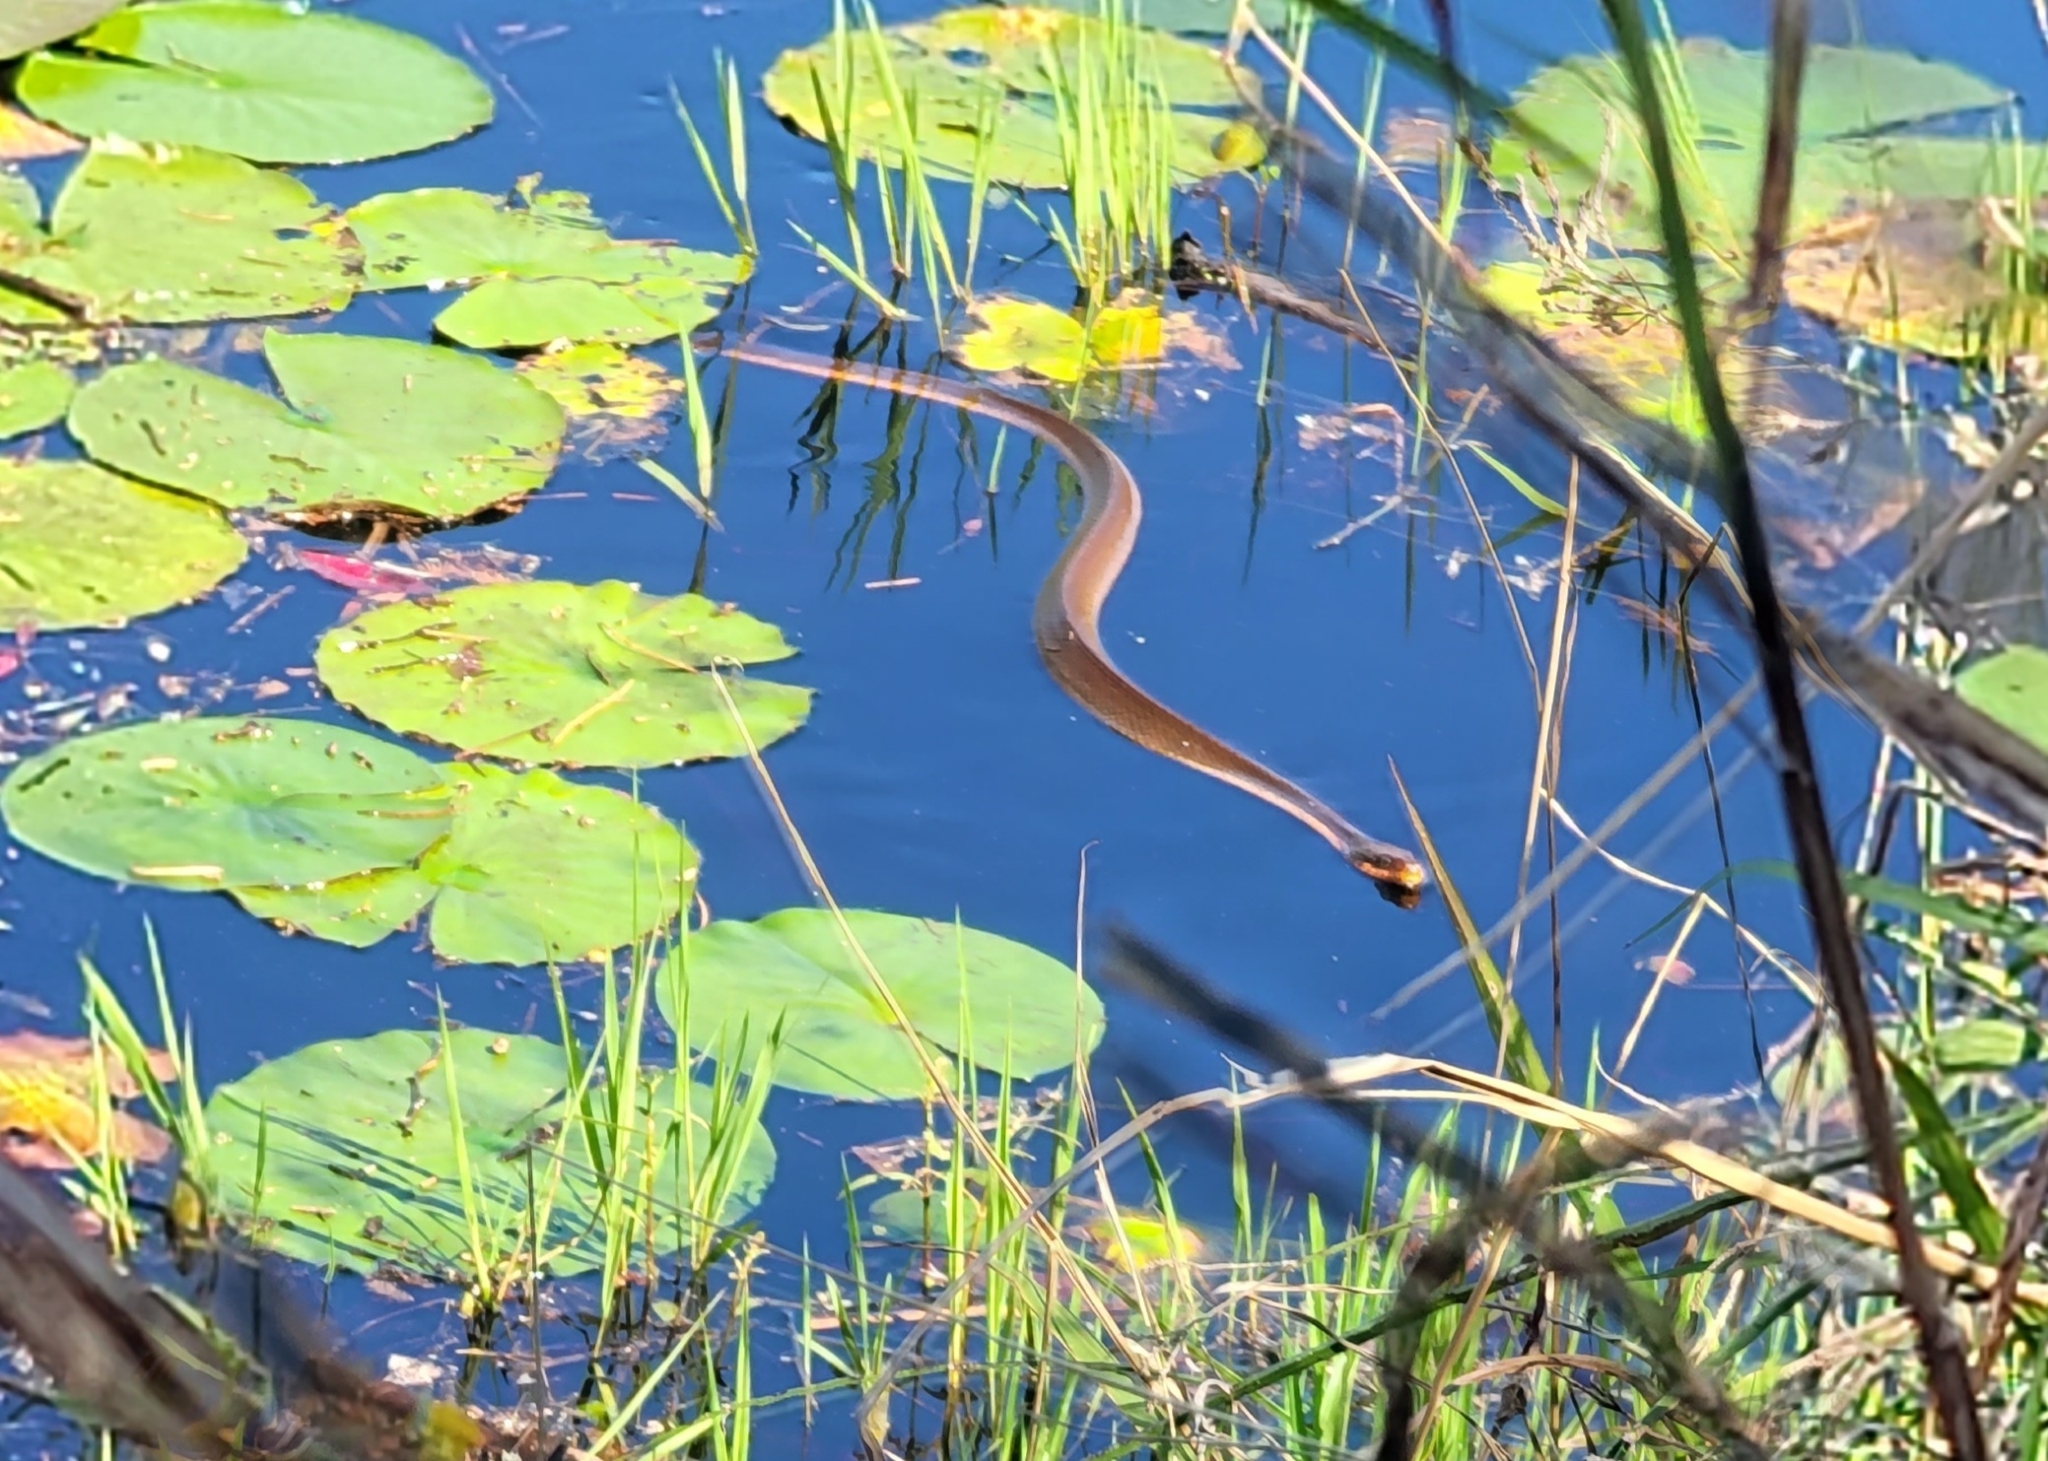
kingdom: Animalia
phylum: Chordata
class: Squamata
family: Colubridae
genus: Nerodia
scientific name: Nerodia erythrogaster
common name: Plainbelly water snake
